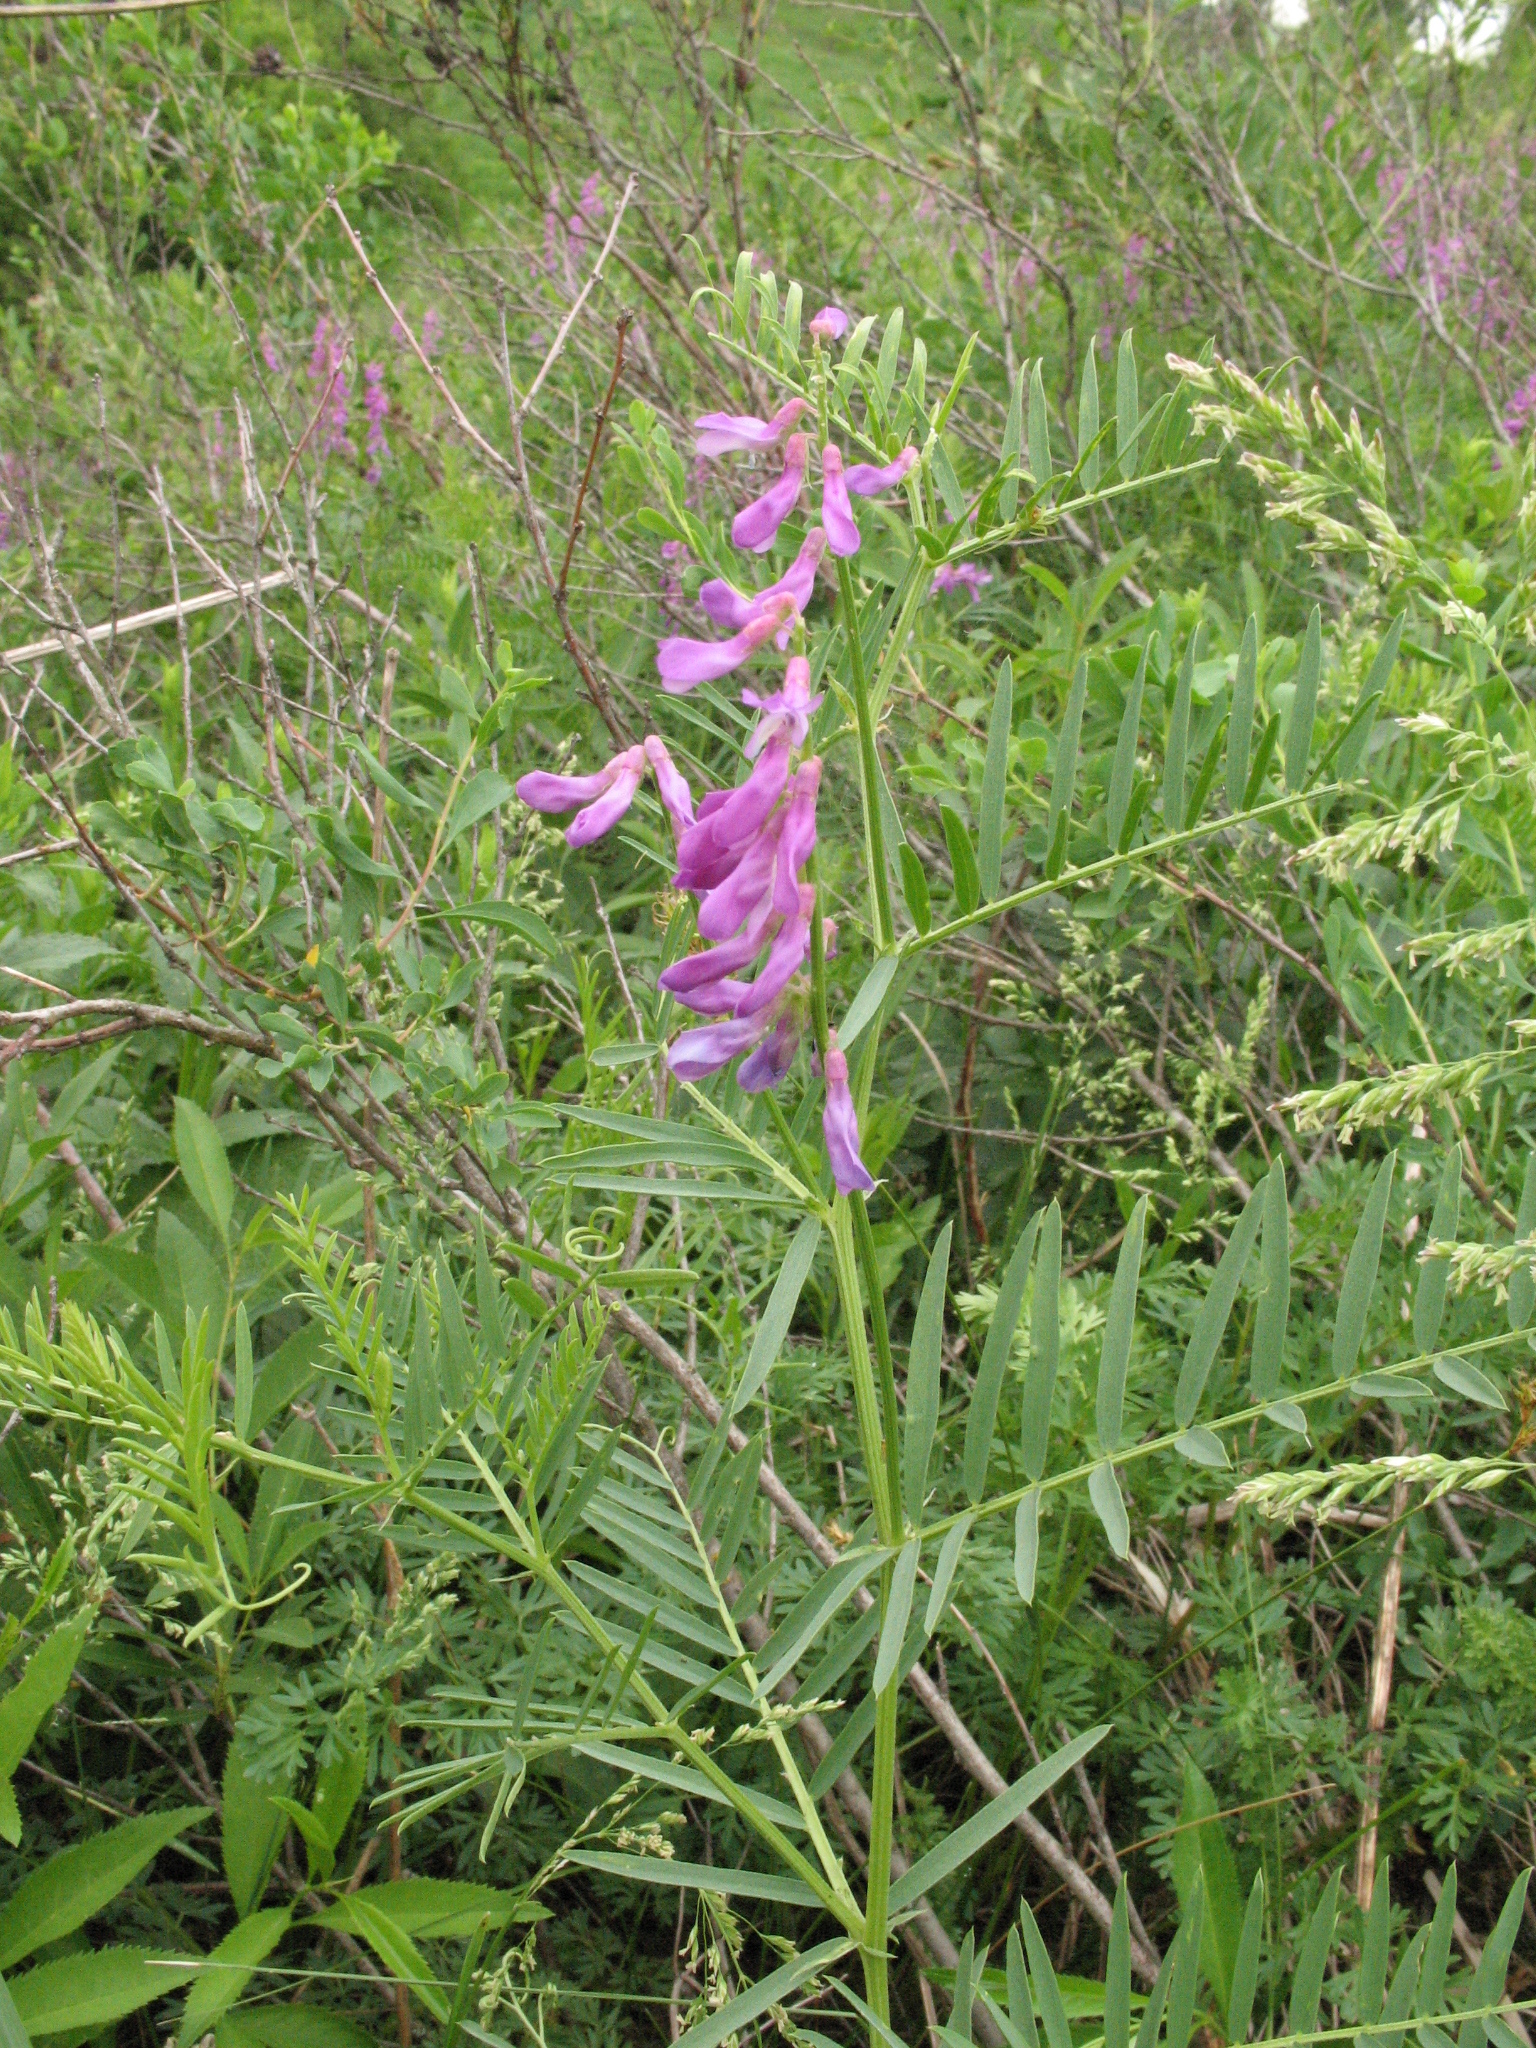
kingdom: Plantae
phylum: Tracheophyta
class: Magnoliopsida
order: Fabales
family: Fabaceae
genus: Vicia
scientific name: Vicia tenuifolia
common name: Fine-leaved vetch
